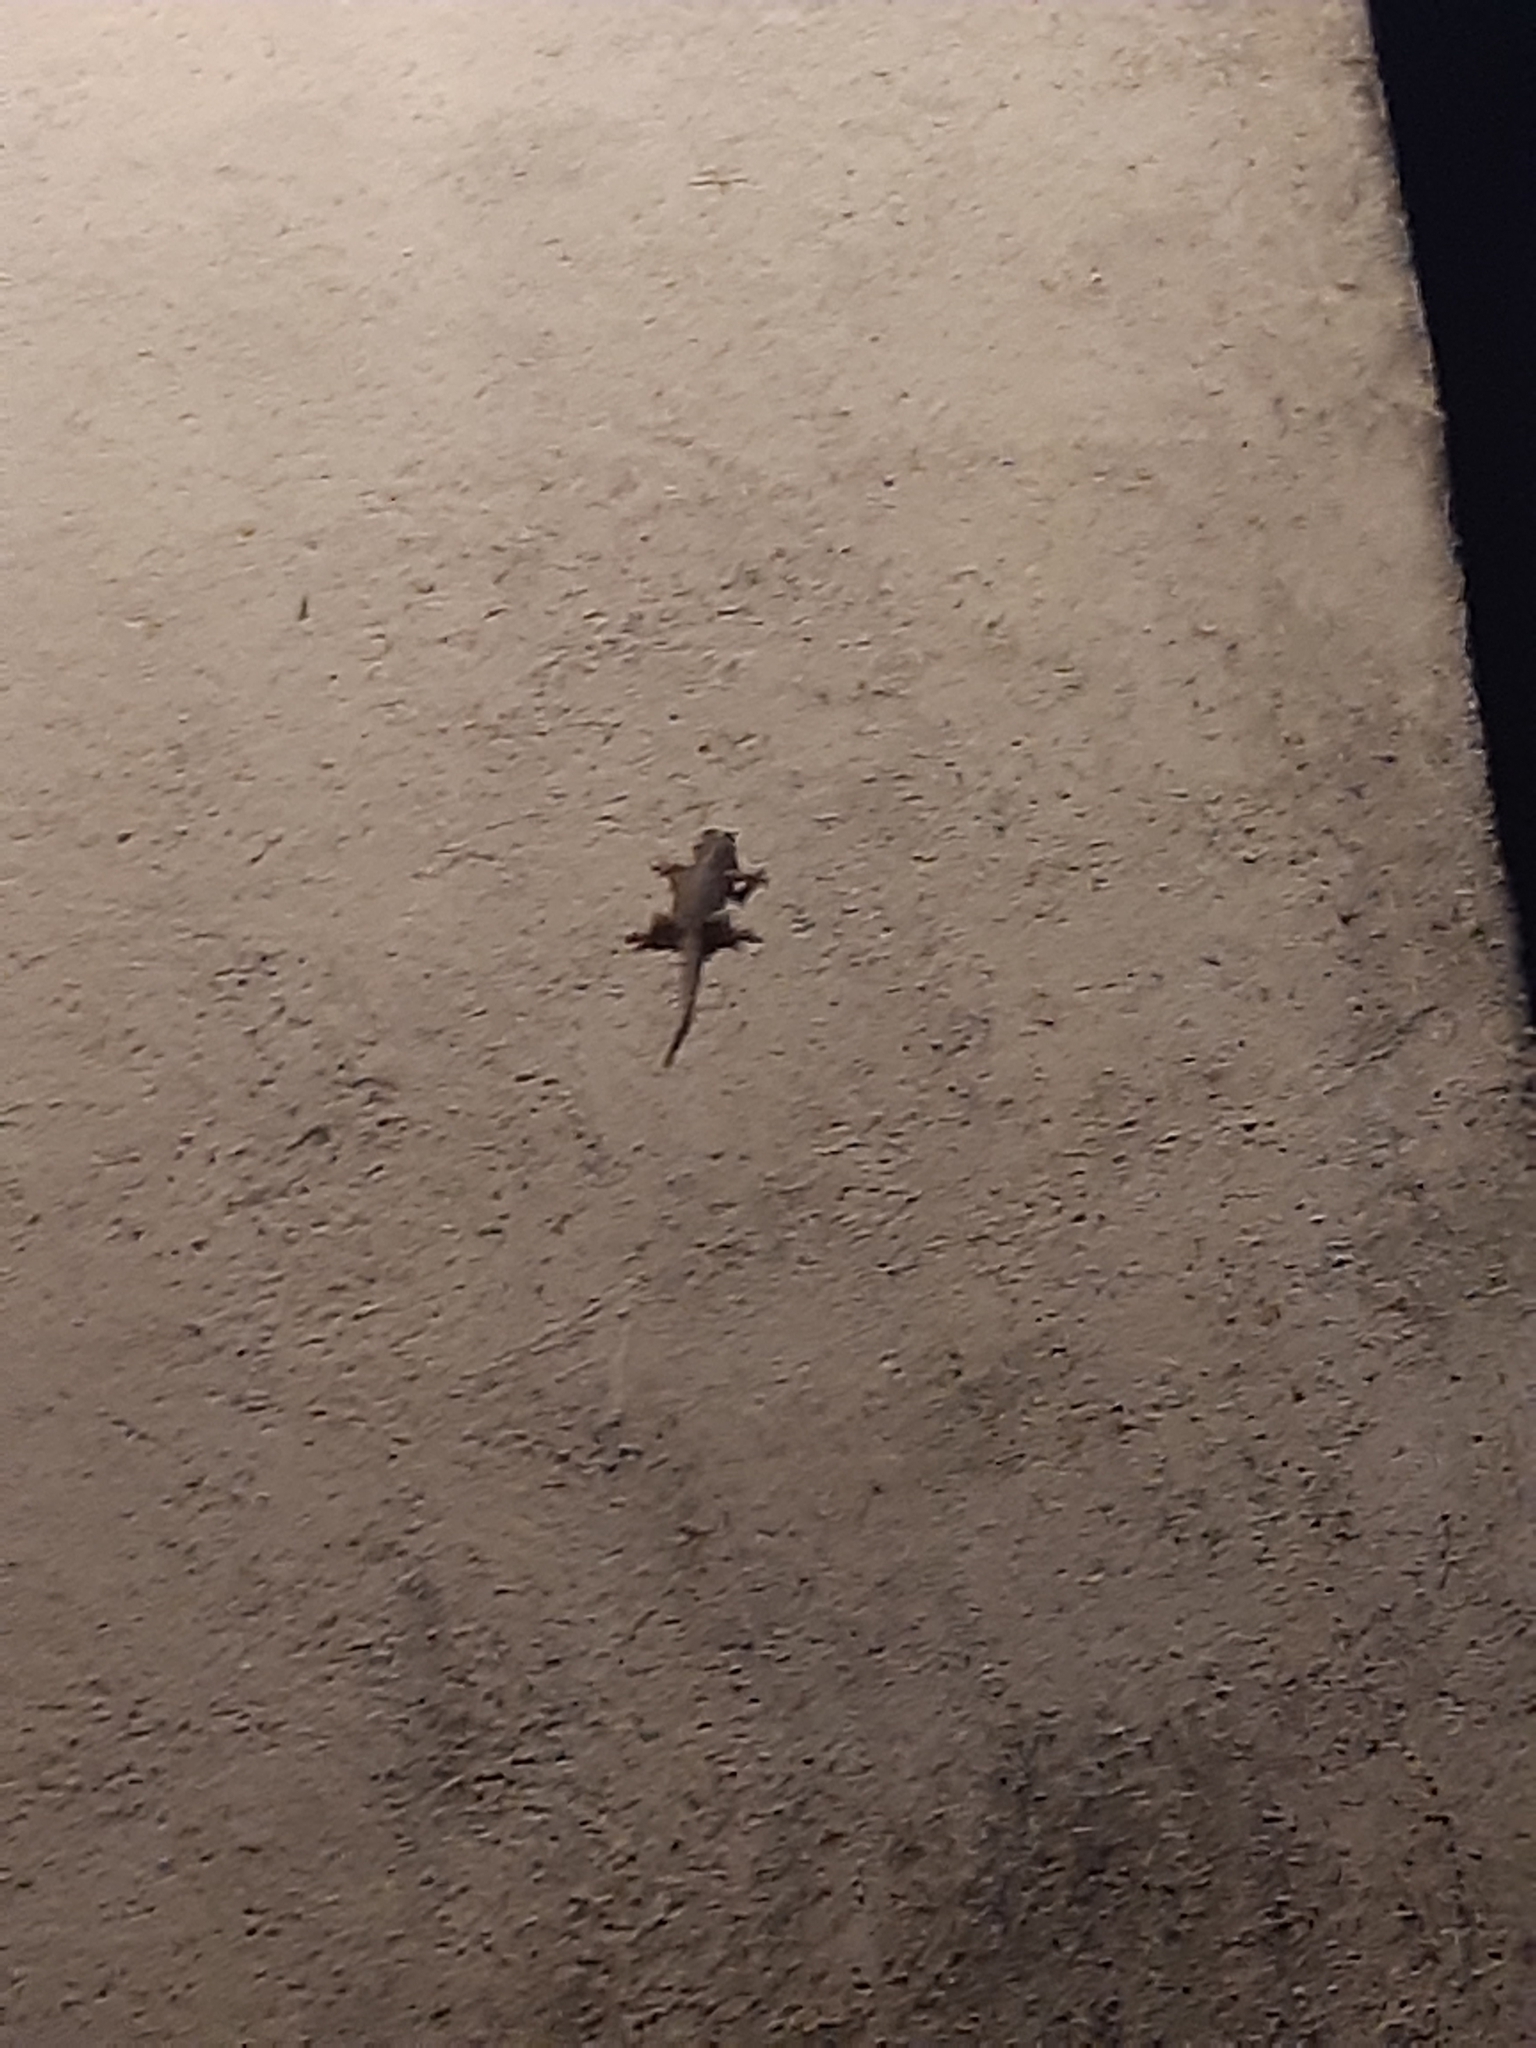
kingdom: Animalia
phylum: Chordata
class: Squamata
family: Phyllodactylidae
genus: Tarentola
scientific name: Tarentola mauritanica
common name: Moorish gecko
